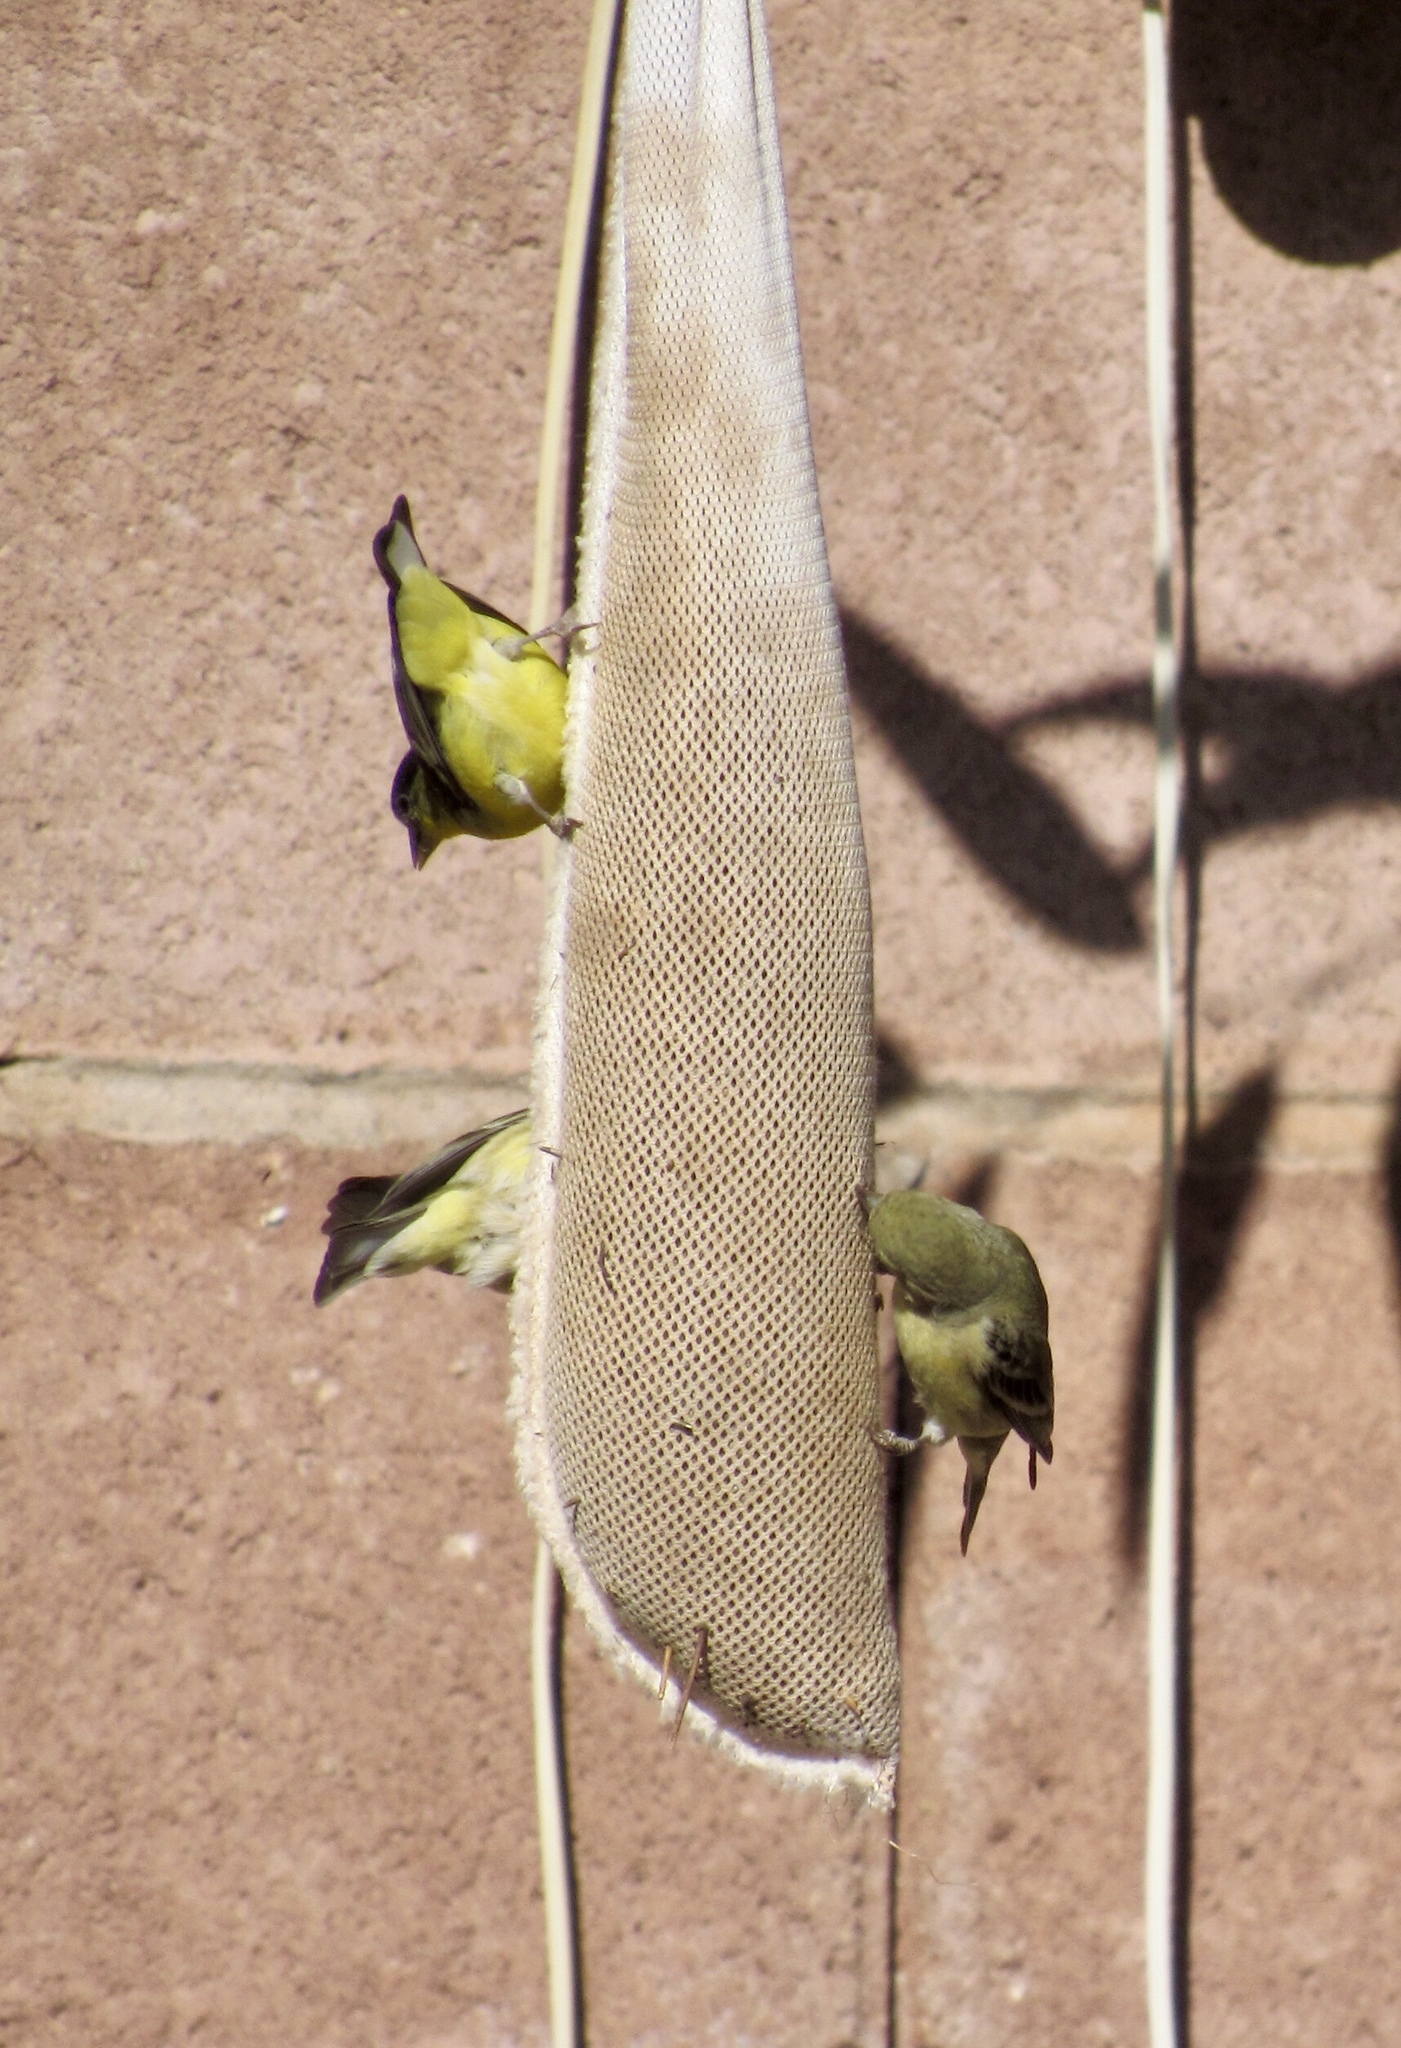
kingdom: Animalia
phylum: Chordata
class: Aves
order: Passeriformes
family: Fringillidae
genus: Spinus
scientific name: Spinus psaltria
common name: Lesser goldfinch
